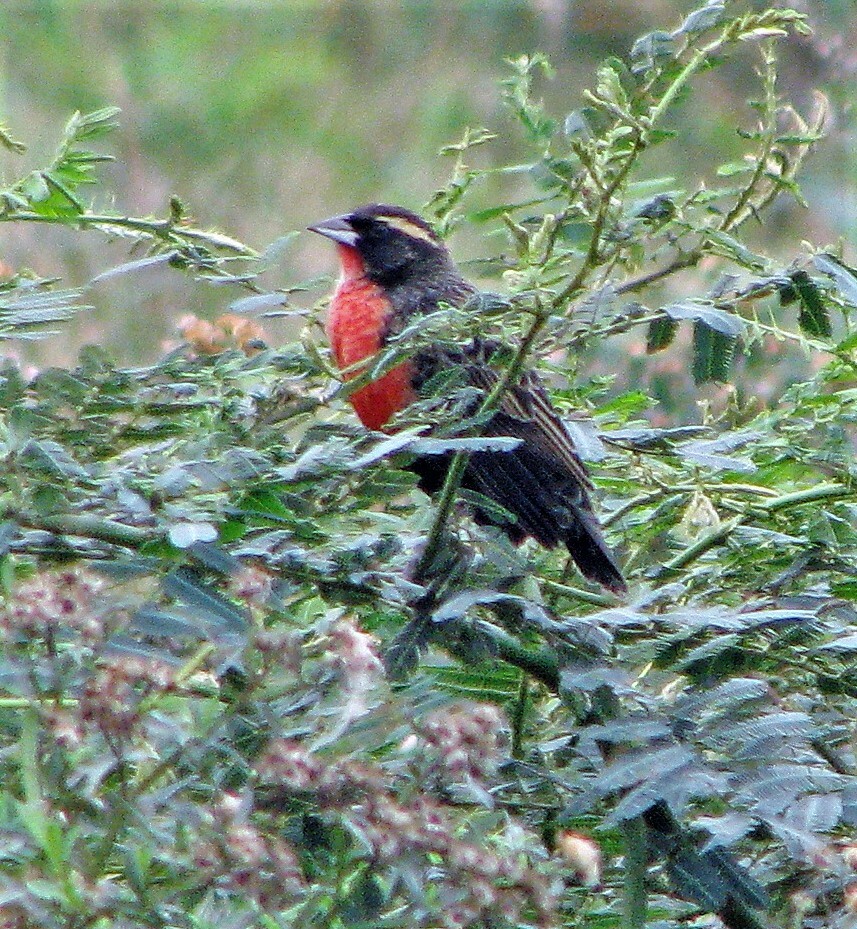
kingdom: Animalia
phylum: Chordata
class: Aves
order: Passeriformes
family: Icteridae
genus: Sturnella
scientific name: Sturnella superciliaris
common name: White-browed blackbird
